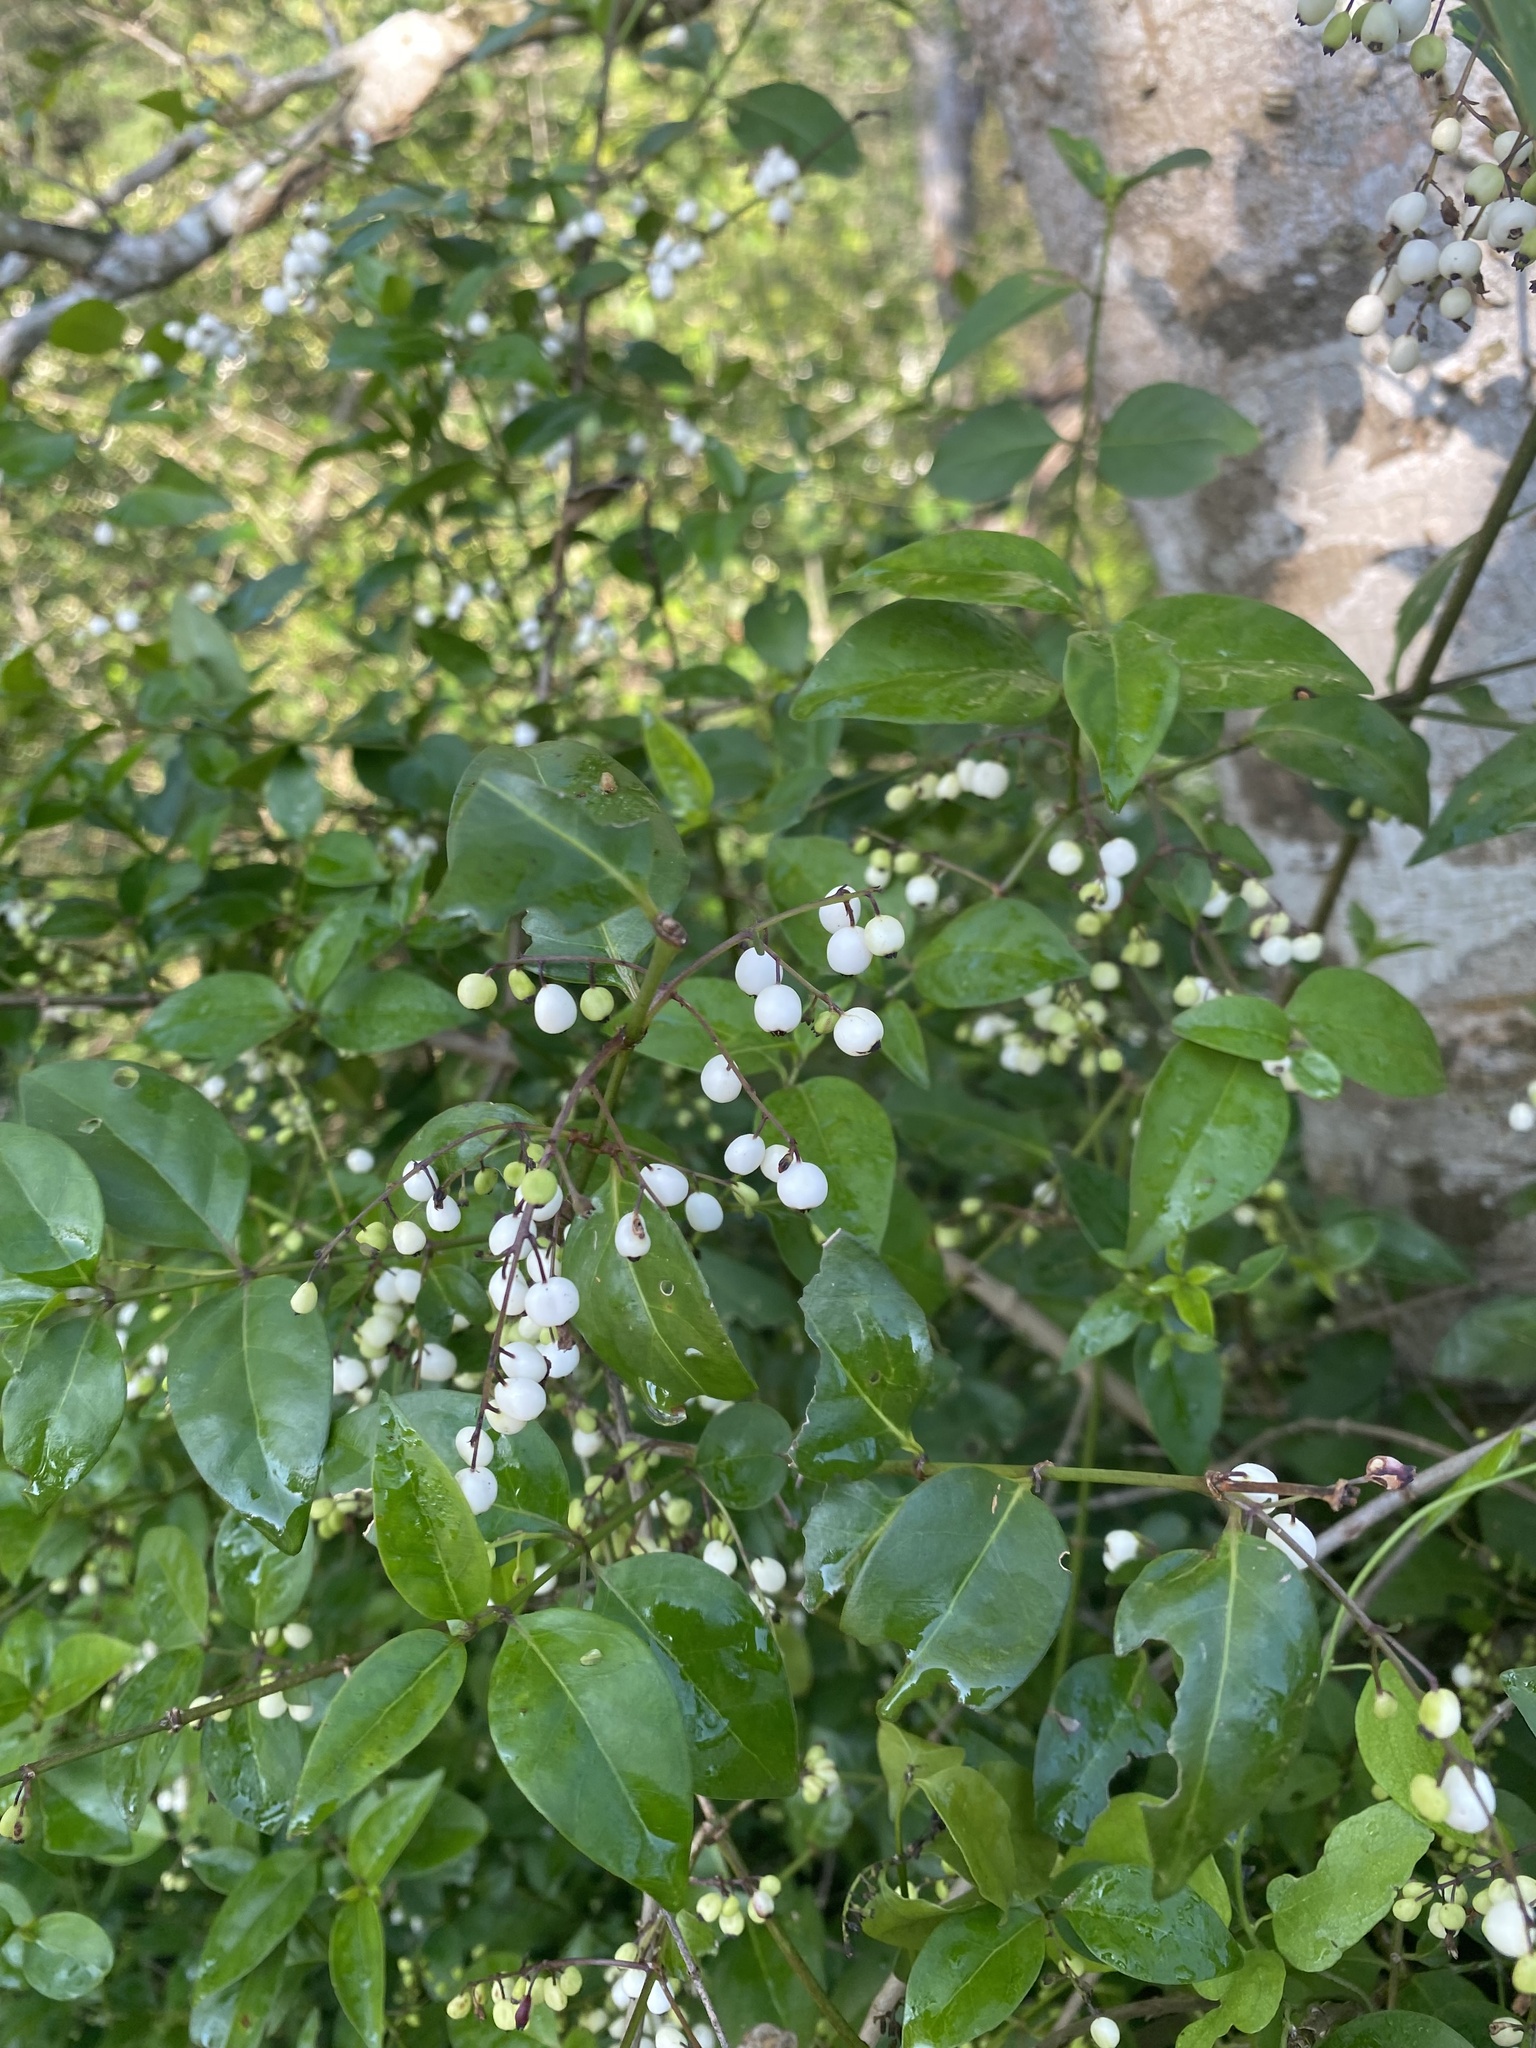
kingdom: Plantae
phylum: Tracheophyta
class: Magnoliopsida
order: Gentianales
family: Rubiaceae
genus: Chiococca
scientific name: Chiococca alba
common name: Snowberry
